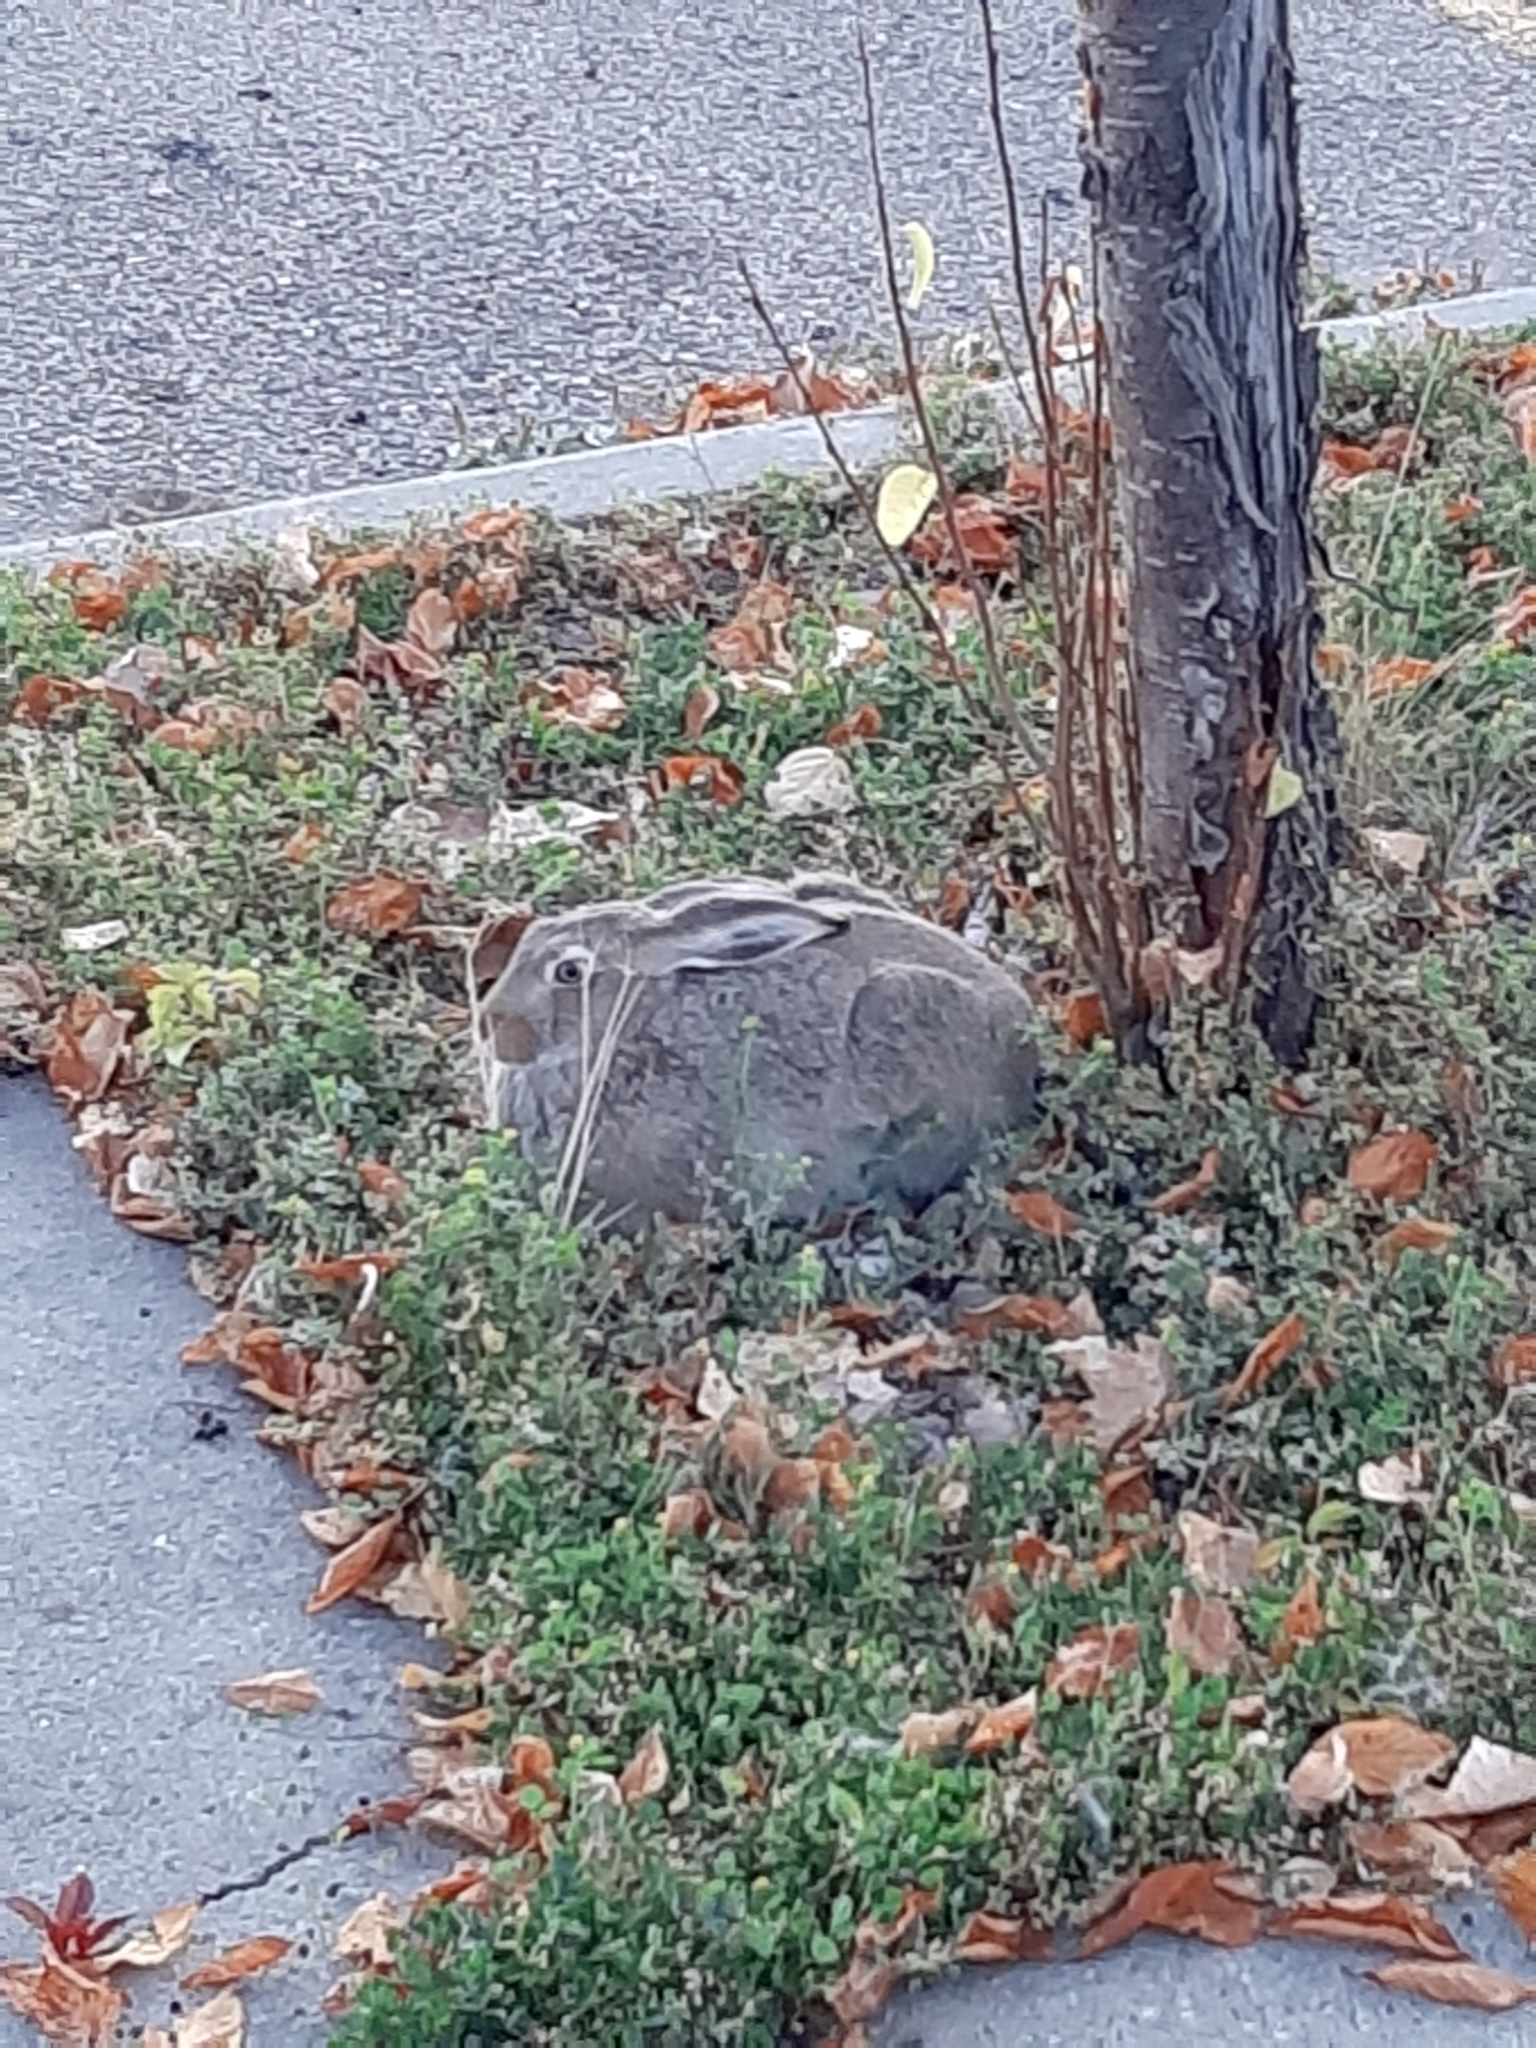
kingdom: Animalia
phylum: Chordata
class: Mammalia
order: Lagomorpha
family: Leporidae
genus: Lepus
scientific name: Lepus townsendii
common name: White-tailed jackrabbit
